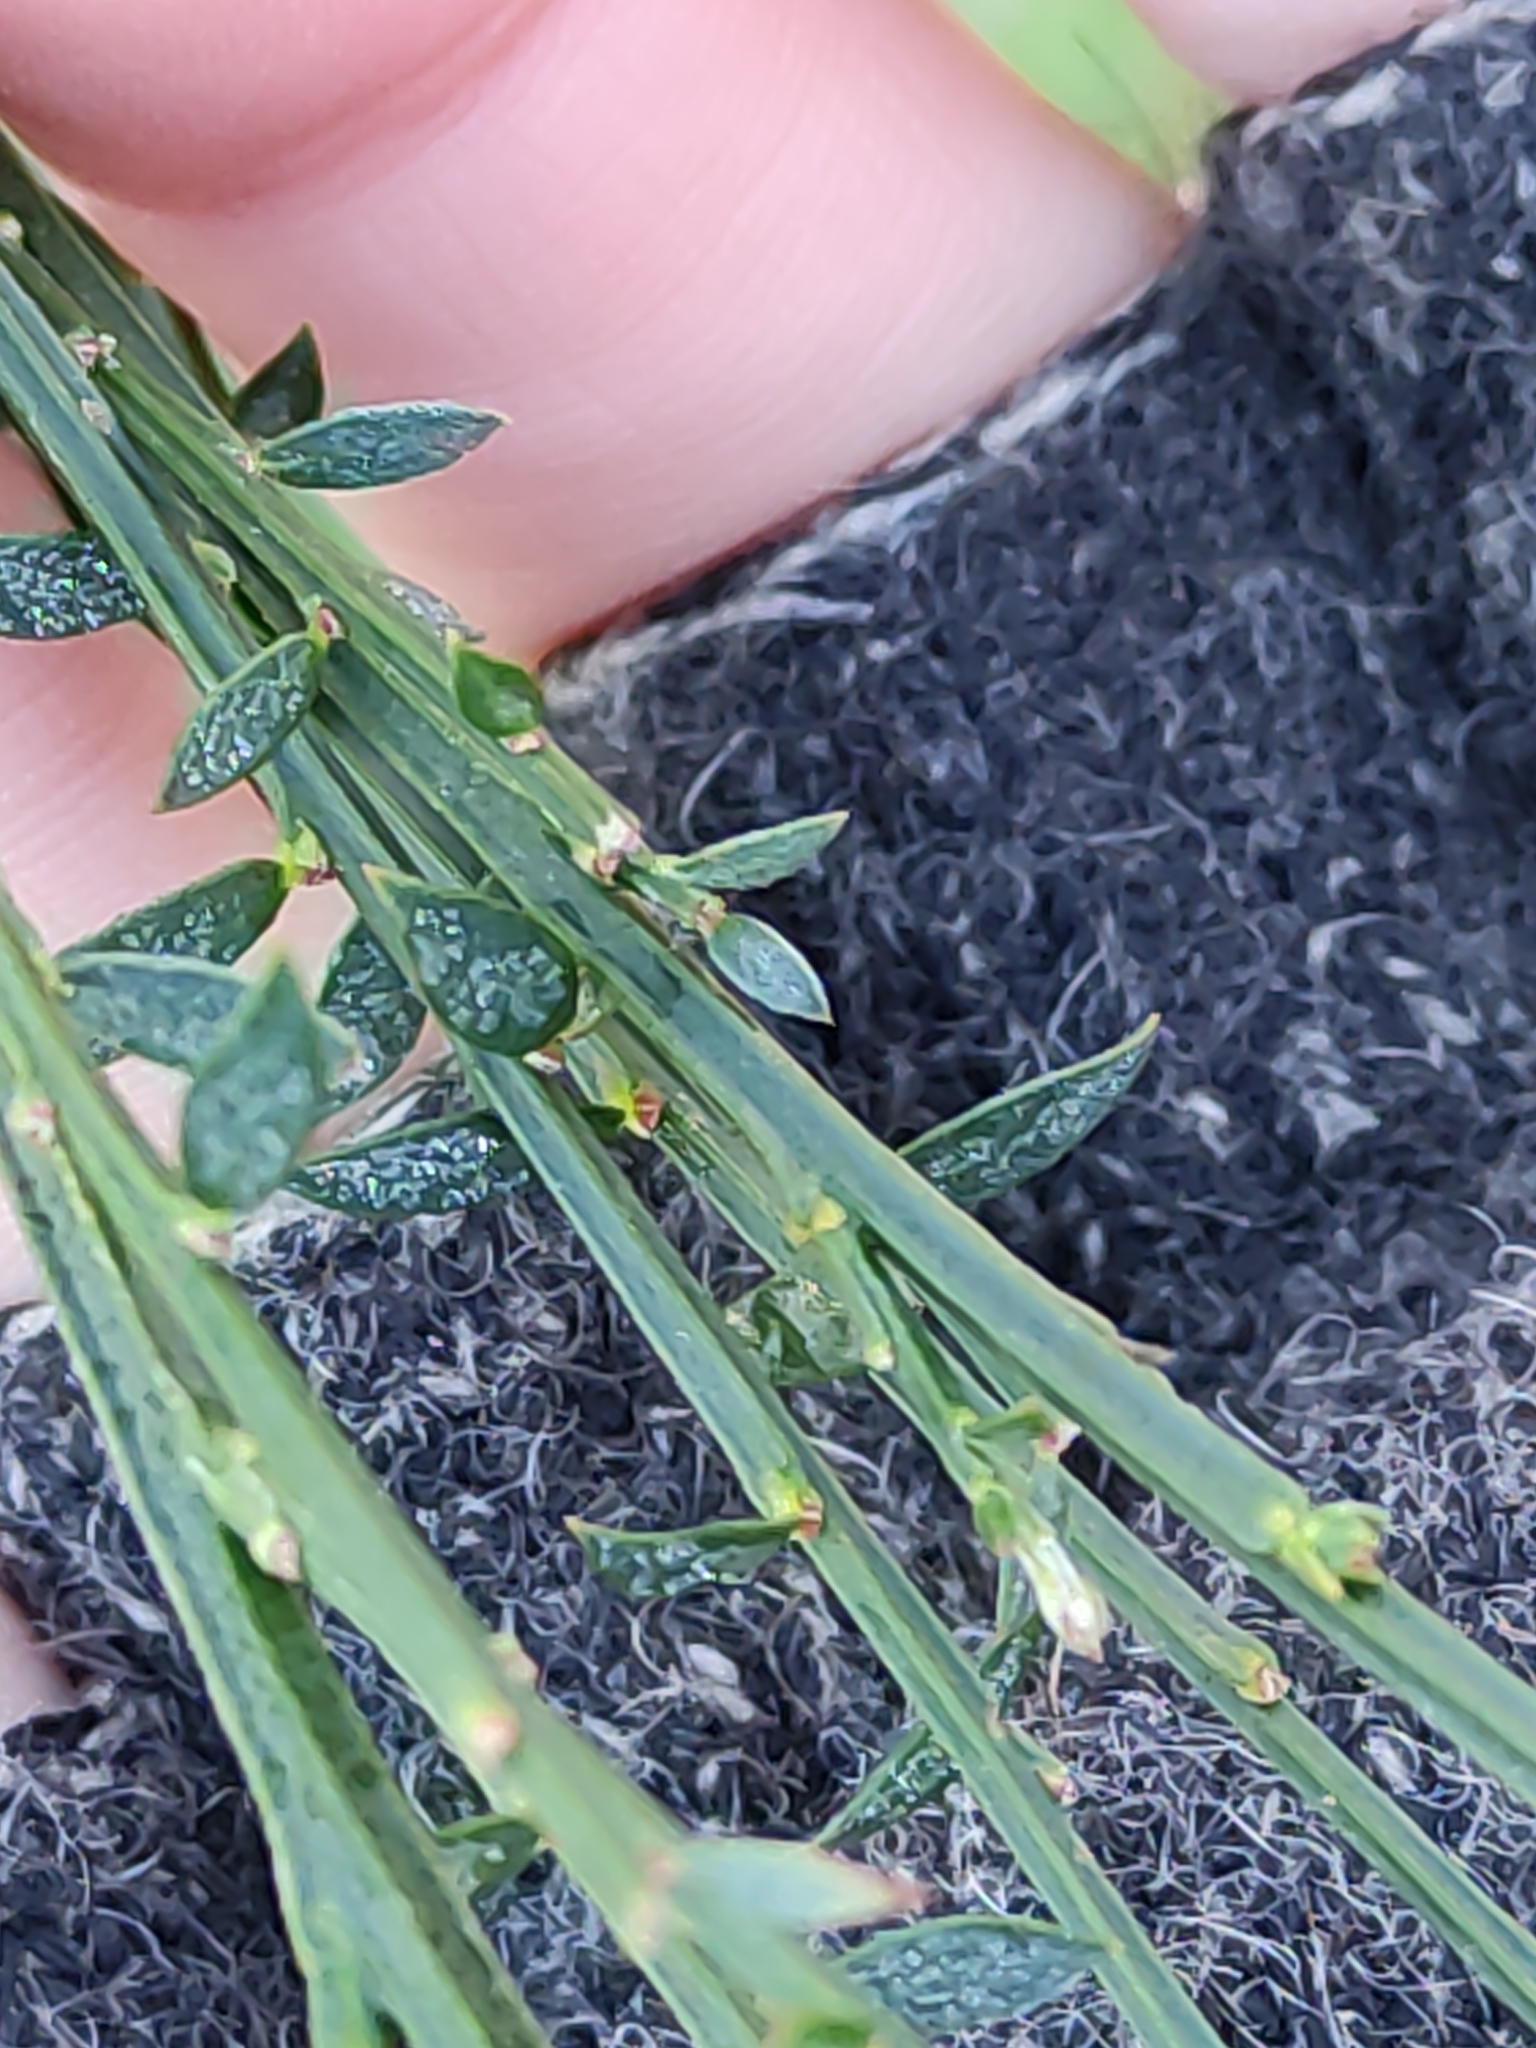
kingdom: Plantae
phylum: Tracheophyta
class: Magnoliopsida
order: Fabales
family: Fabaceae
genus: Cytisus
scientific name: Cytisus scoparius
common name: Scotch broom
